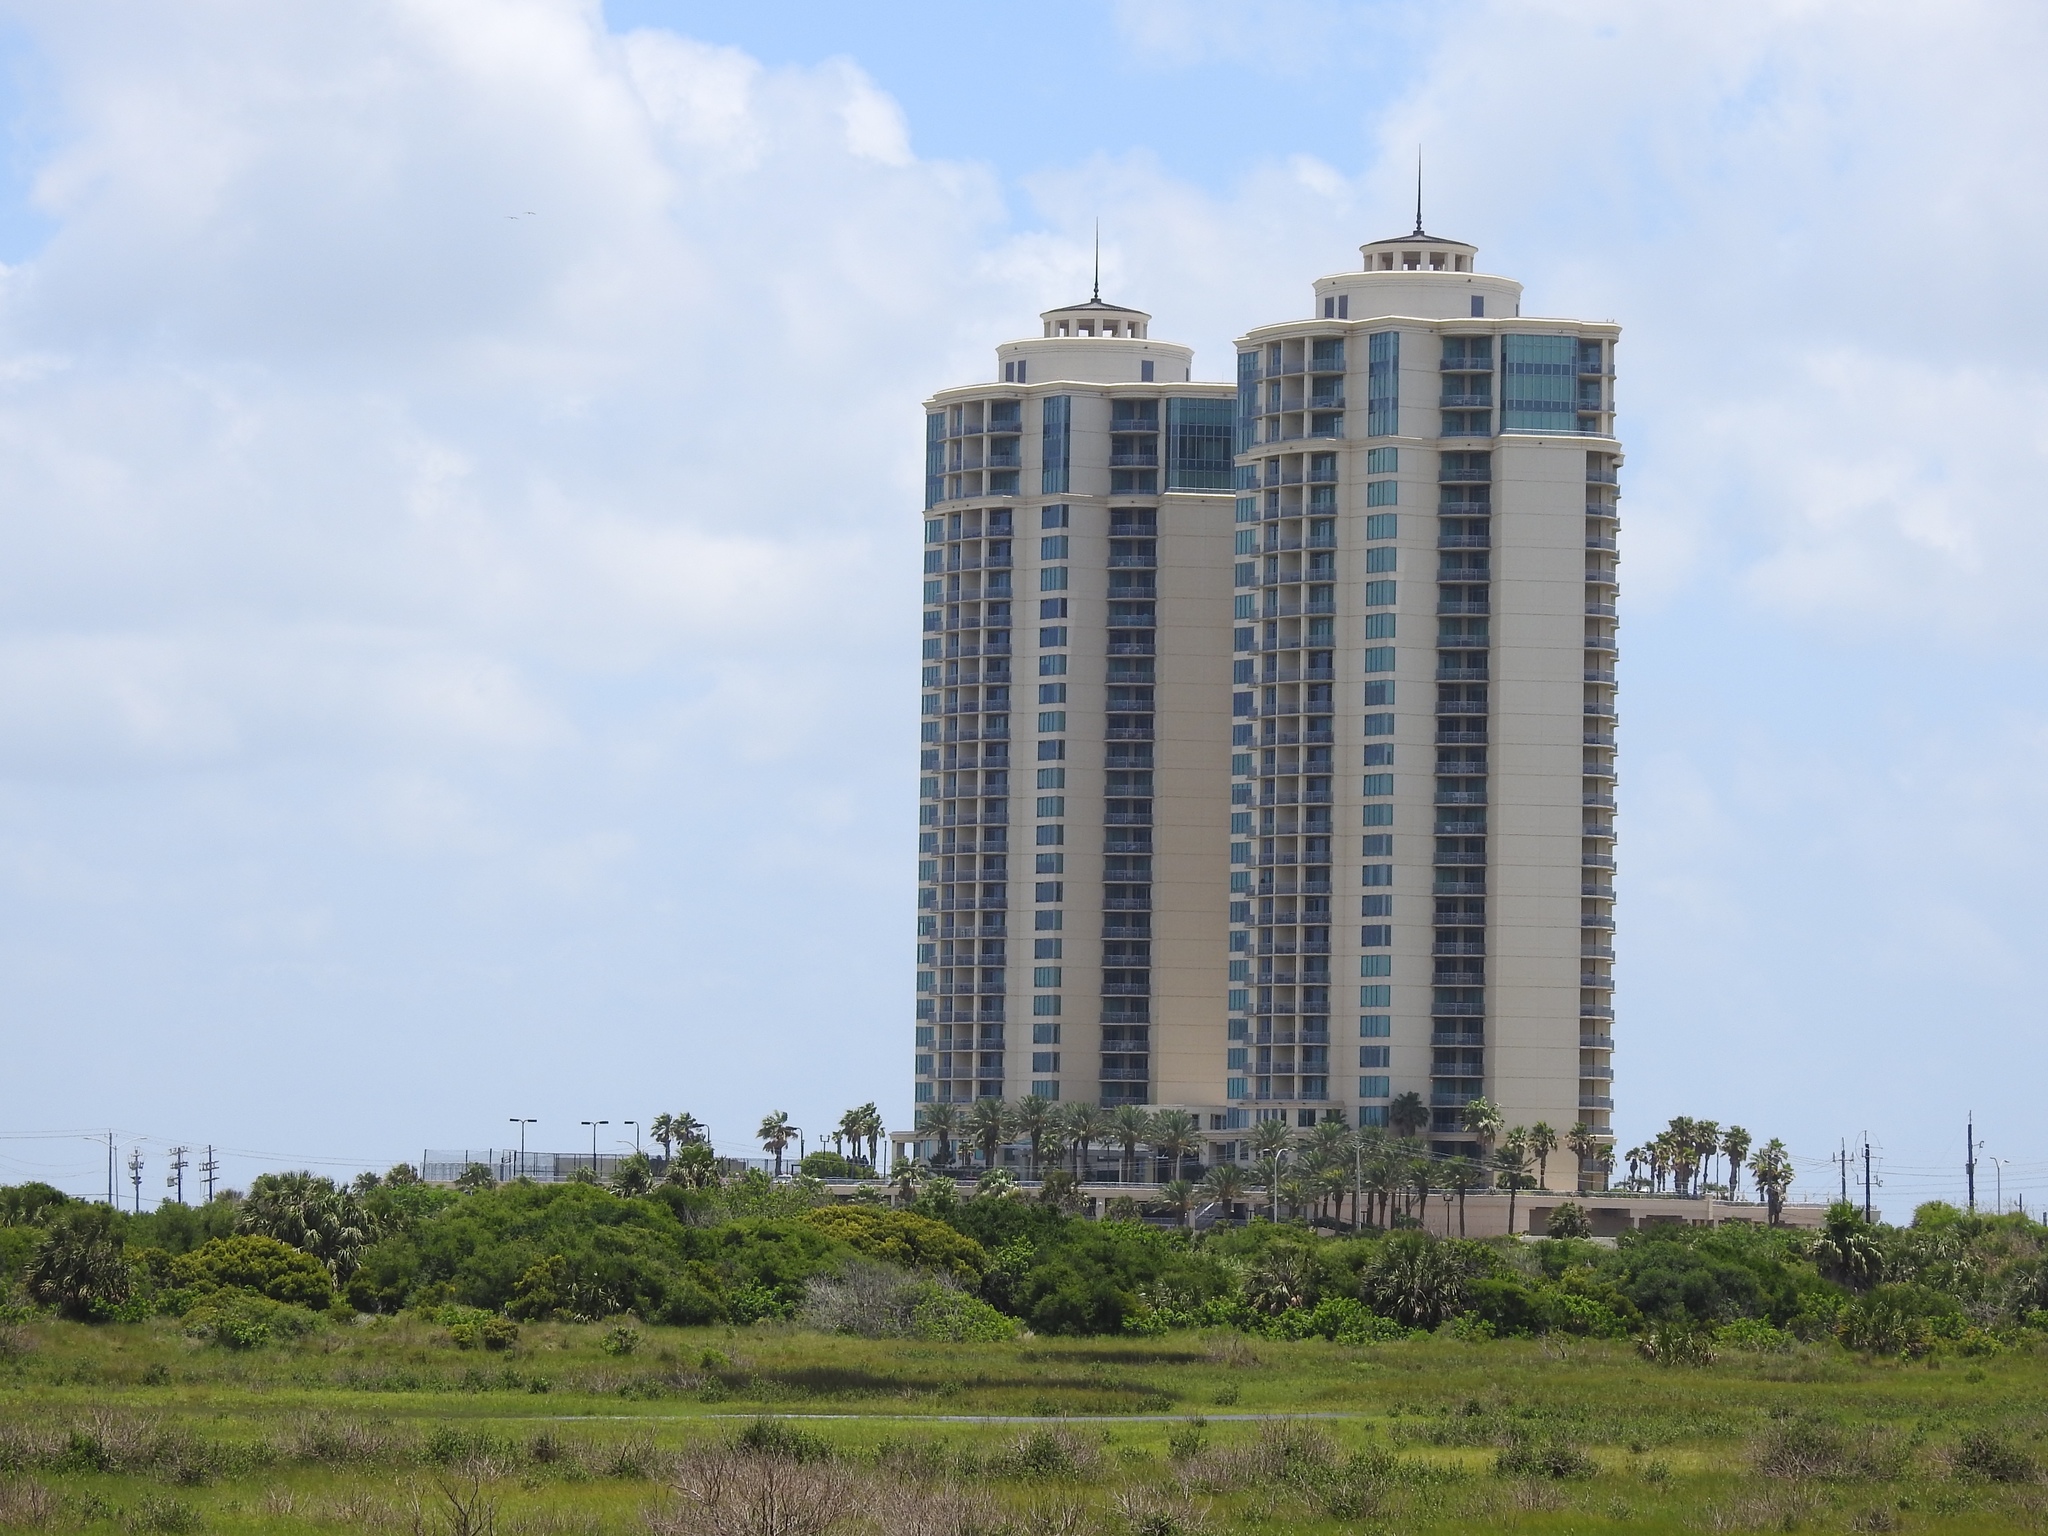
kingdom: Animalia
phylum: Chordata
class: Aves
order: Suliformes
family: Phalacrocoracidae
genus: Phalacrocorax
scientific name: Phalacrocorax brasilianus
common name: Neotropic cormorant
